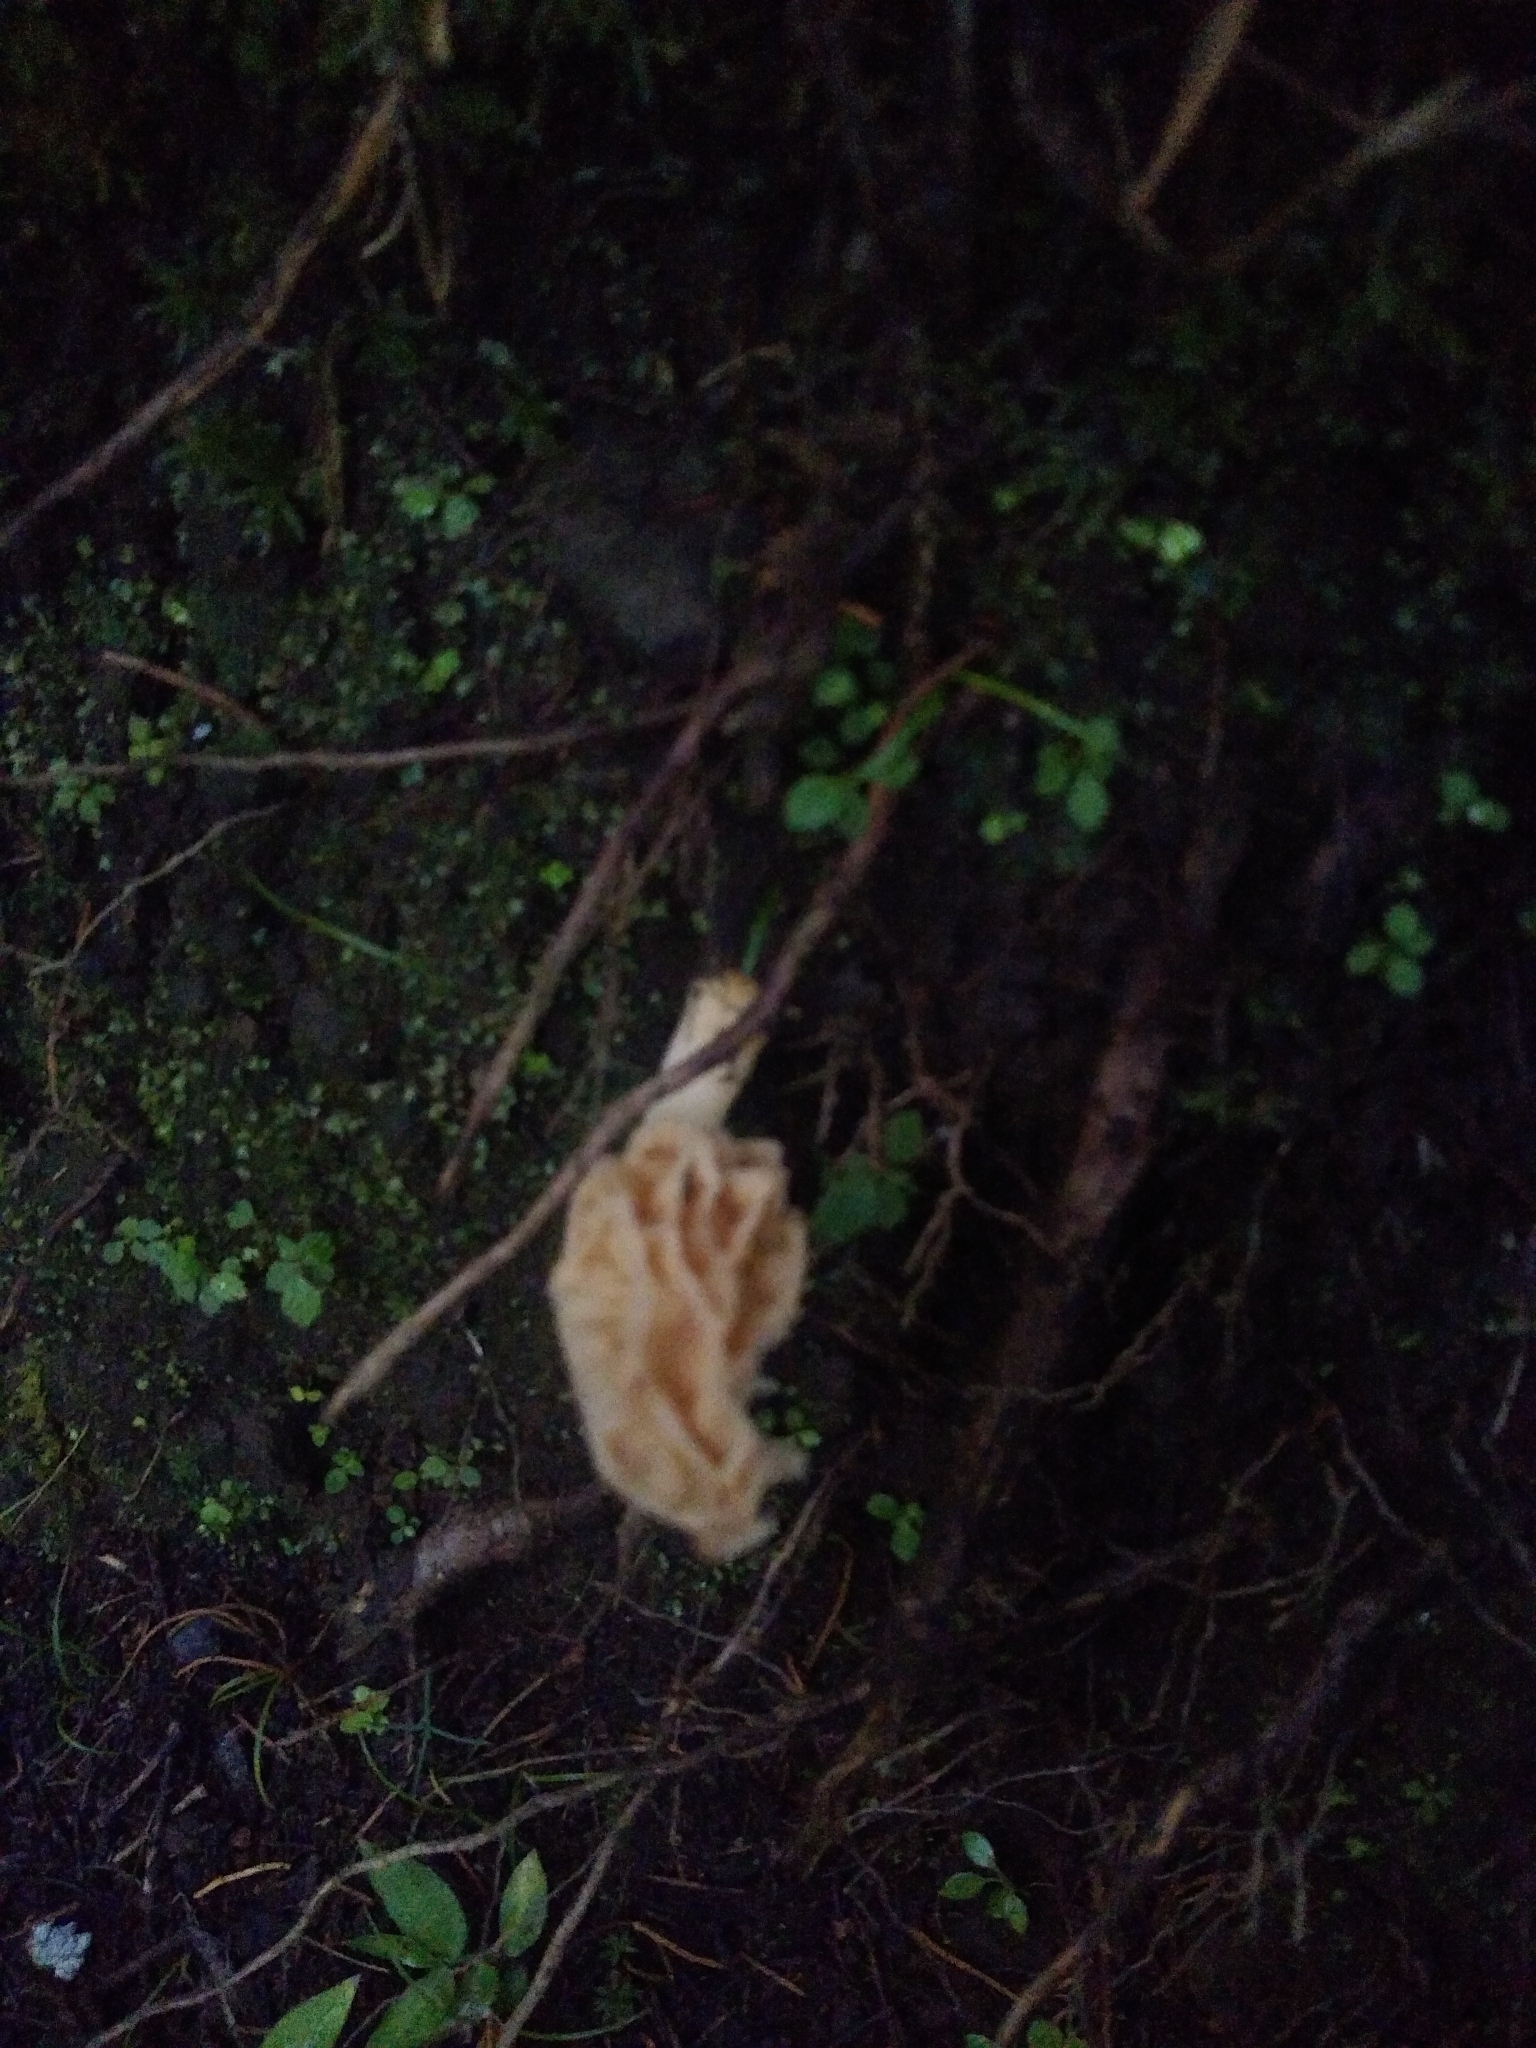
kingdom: Fungi
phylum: Ascomycota
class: Pezizomycetes
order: Pezizales
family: Morchellaceae
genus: Morchella
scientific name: Morchella herediana
